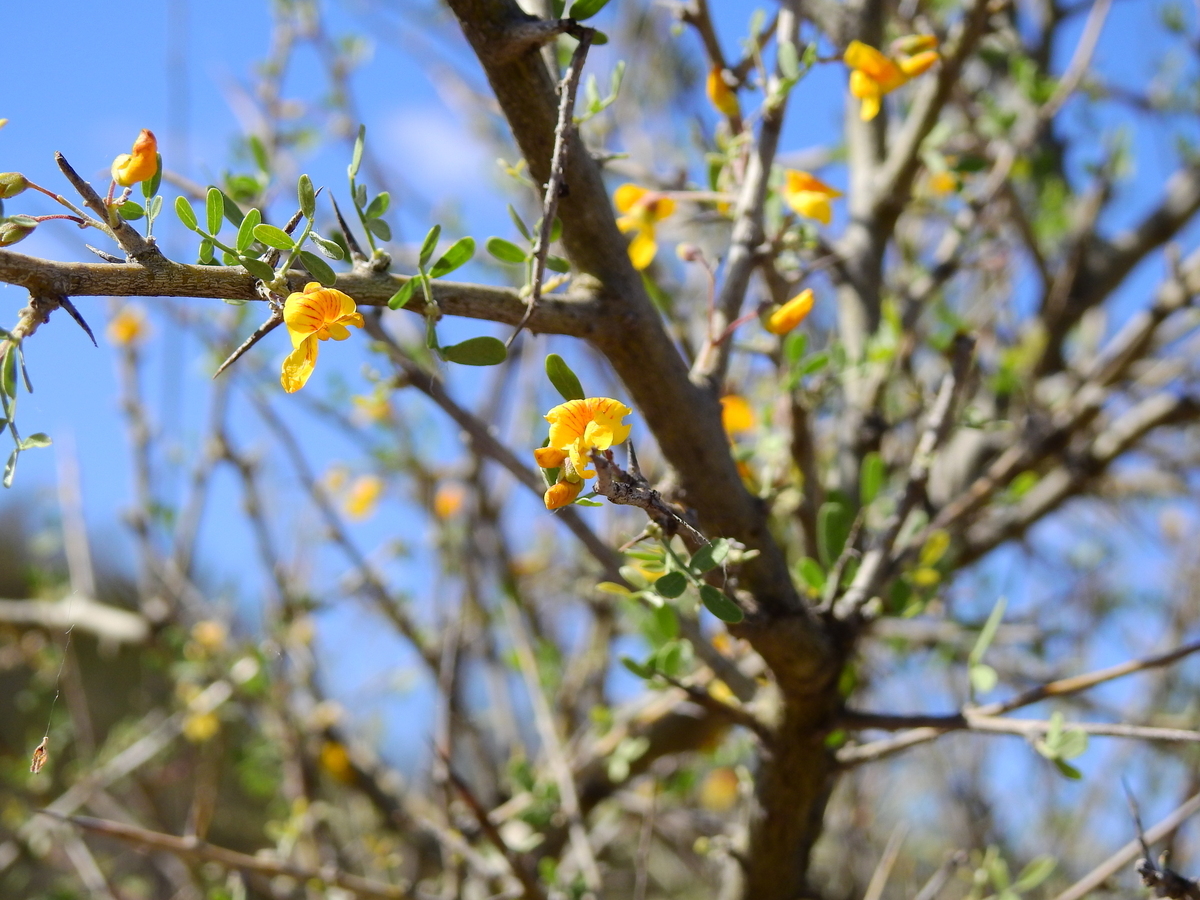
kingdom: Plantae
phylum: Tracheophyta
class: Magnoliopsida
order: Fabales
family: Fabaceae
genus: Geoffroea
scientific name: Geoffroea decorticans
